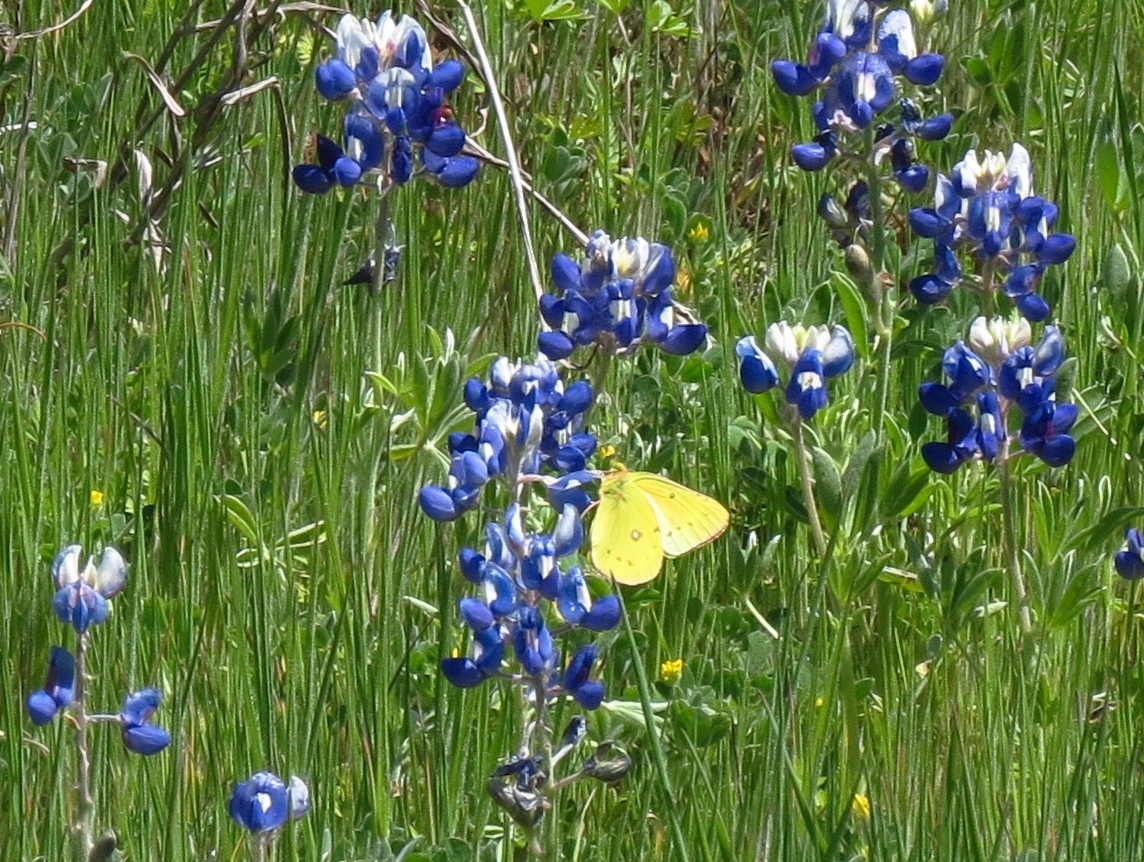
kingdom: Animalia
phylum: Arthropoda
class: Insecta
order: Lepidoptera
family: Pieridae
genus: Colias
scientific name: Colias eurytheme
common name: Alfalfa butterfly
